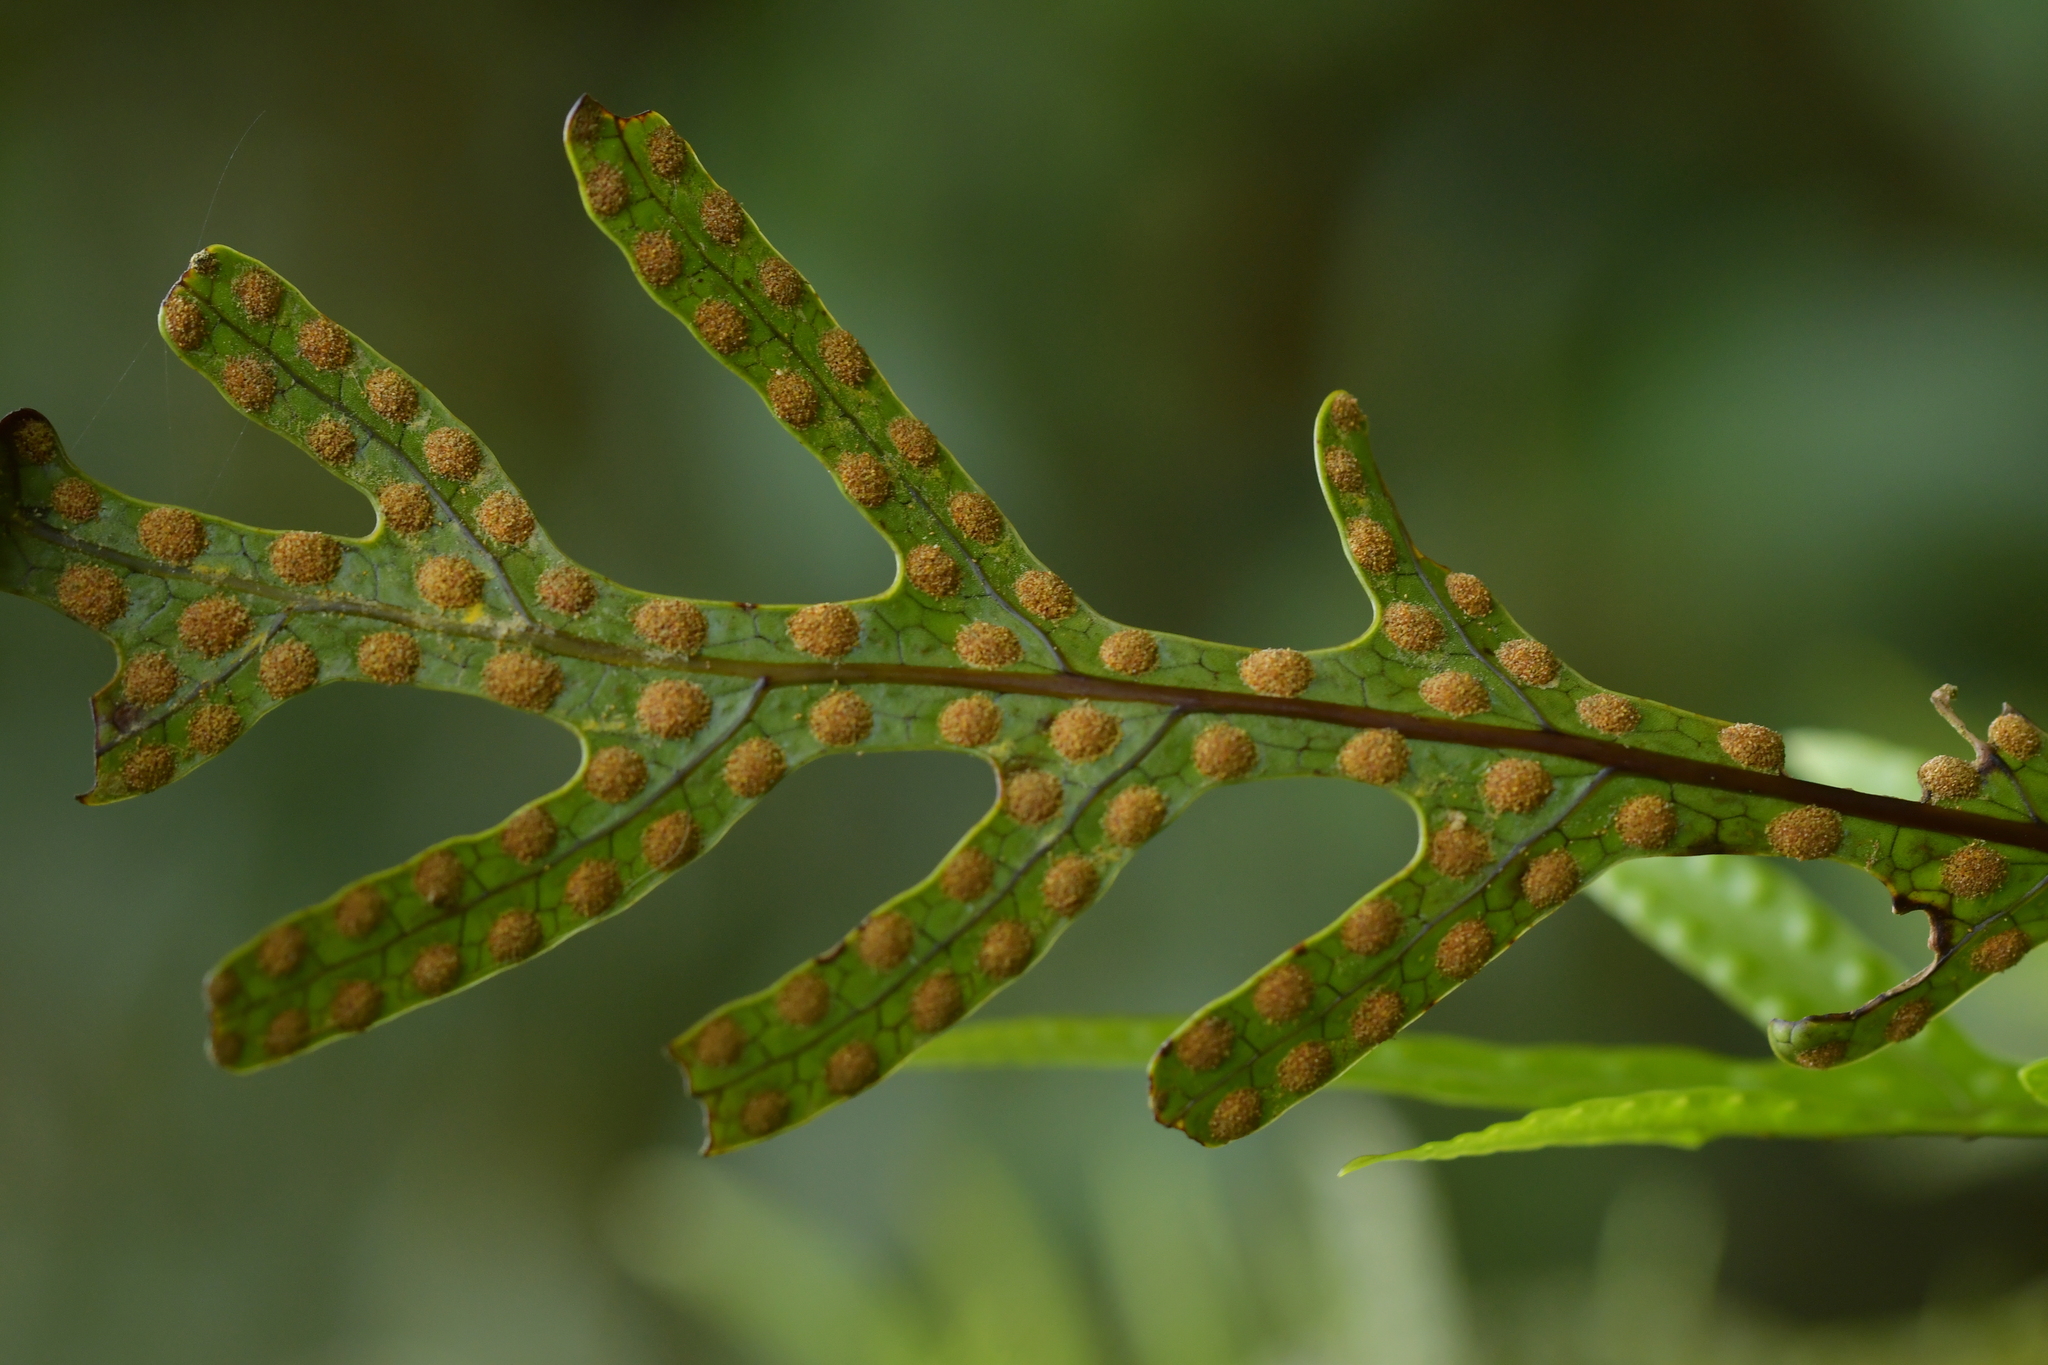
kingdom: Plantae
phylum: Tracheophyta
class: Polypodiopsida
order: Polypodiales
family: Polypodiaceae
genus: Lecanopteris
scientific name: Lecanopteris pustulata
